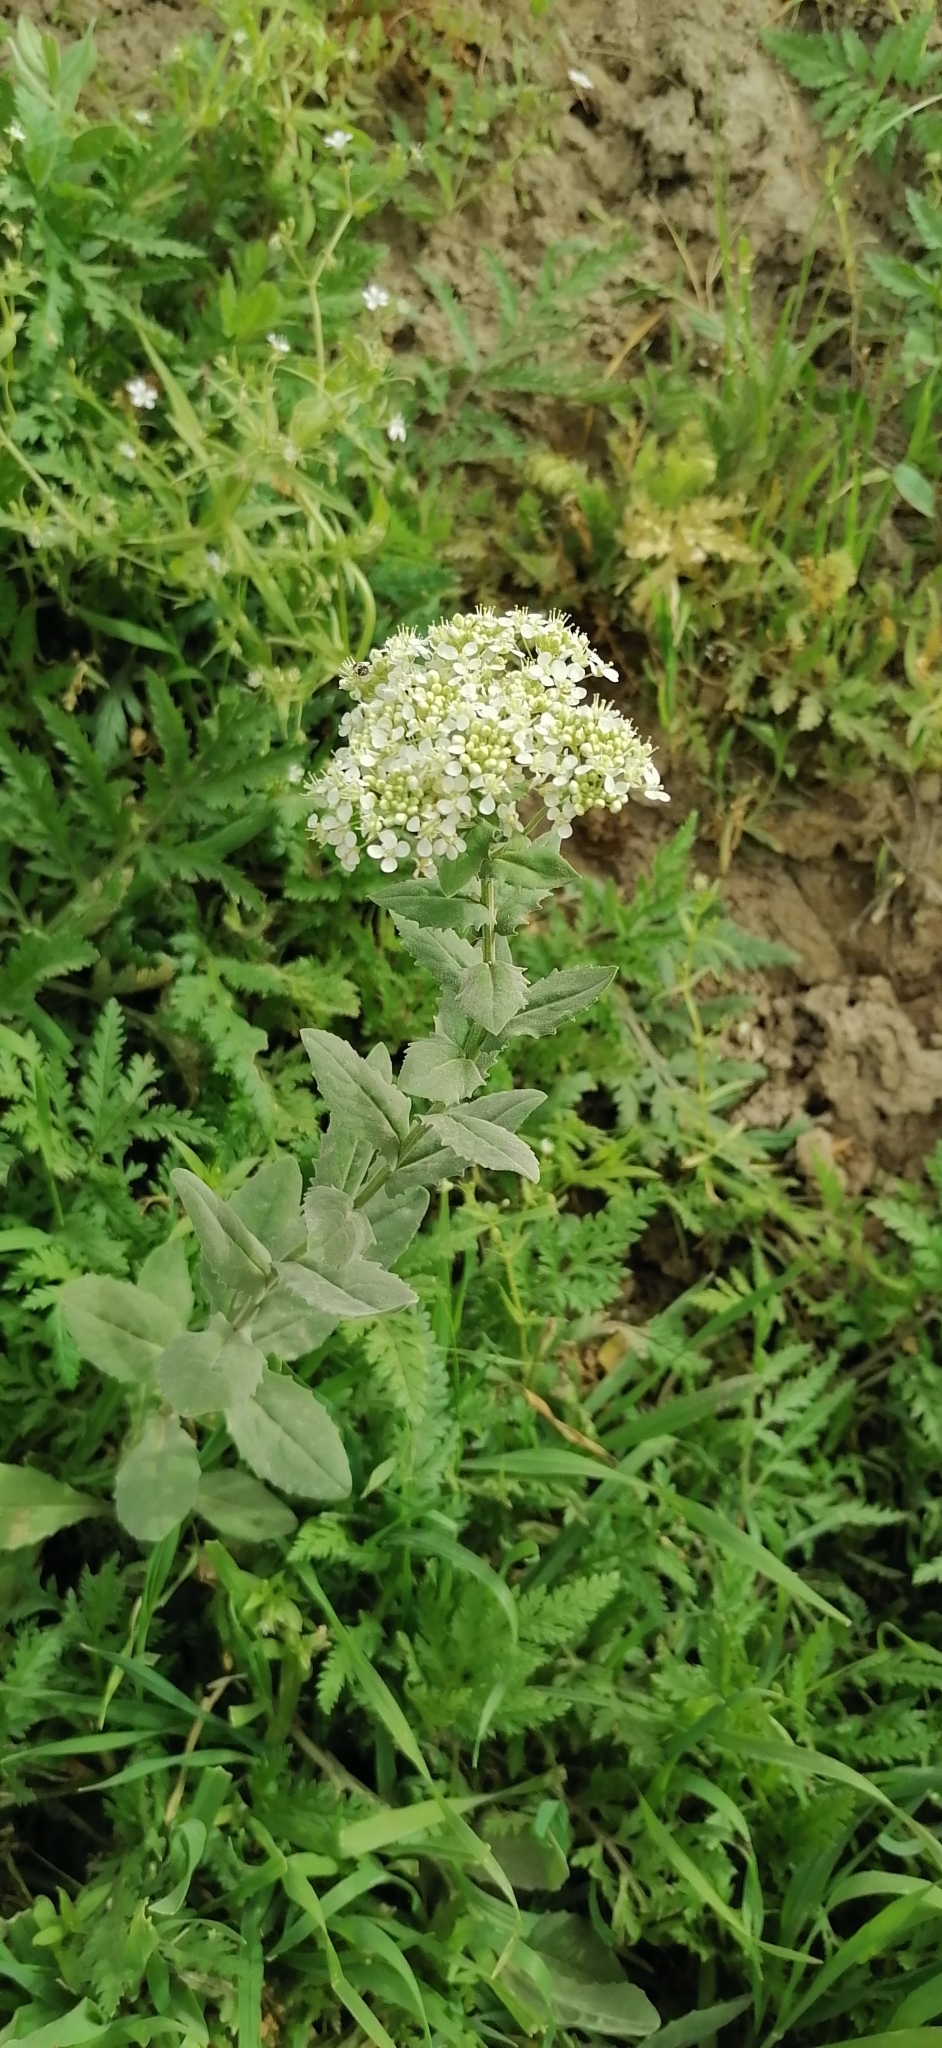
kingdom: Plantae
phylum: Tracheophyta
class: Magnoliopsida
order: Brassicales
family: Brassicaceae
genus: Lepidium
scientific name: Lepidium draba
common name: Hoary cress
